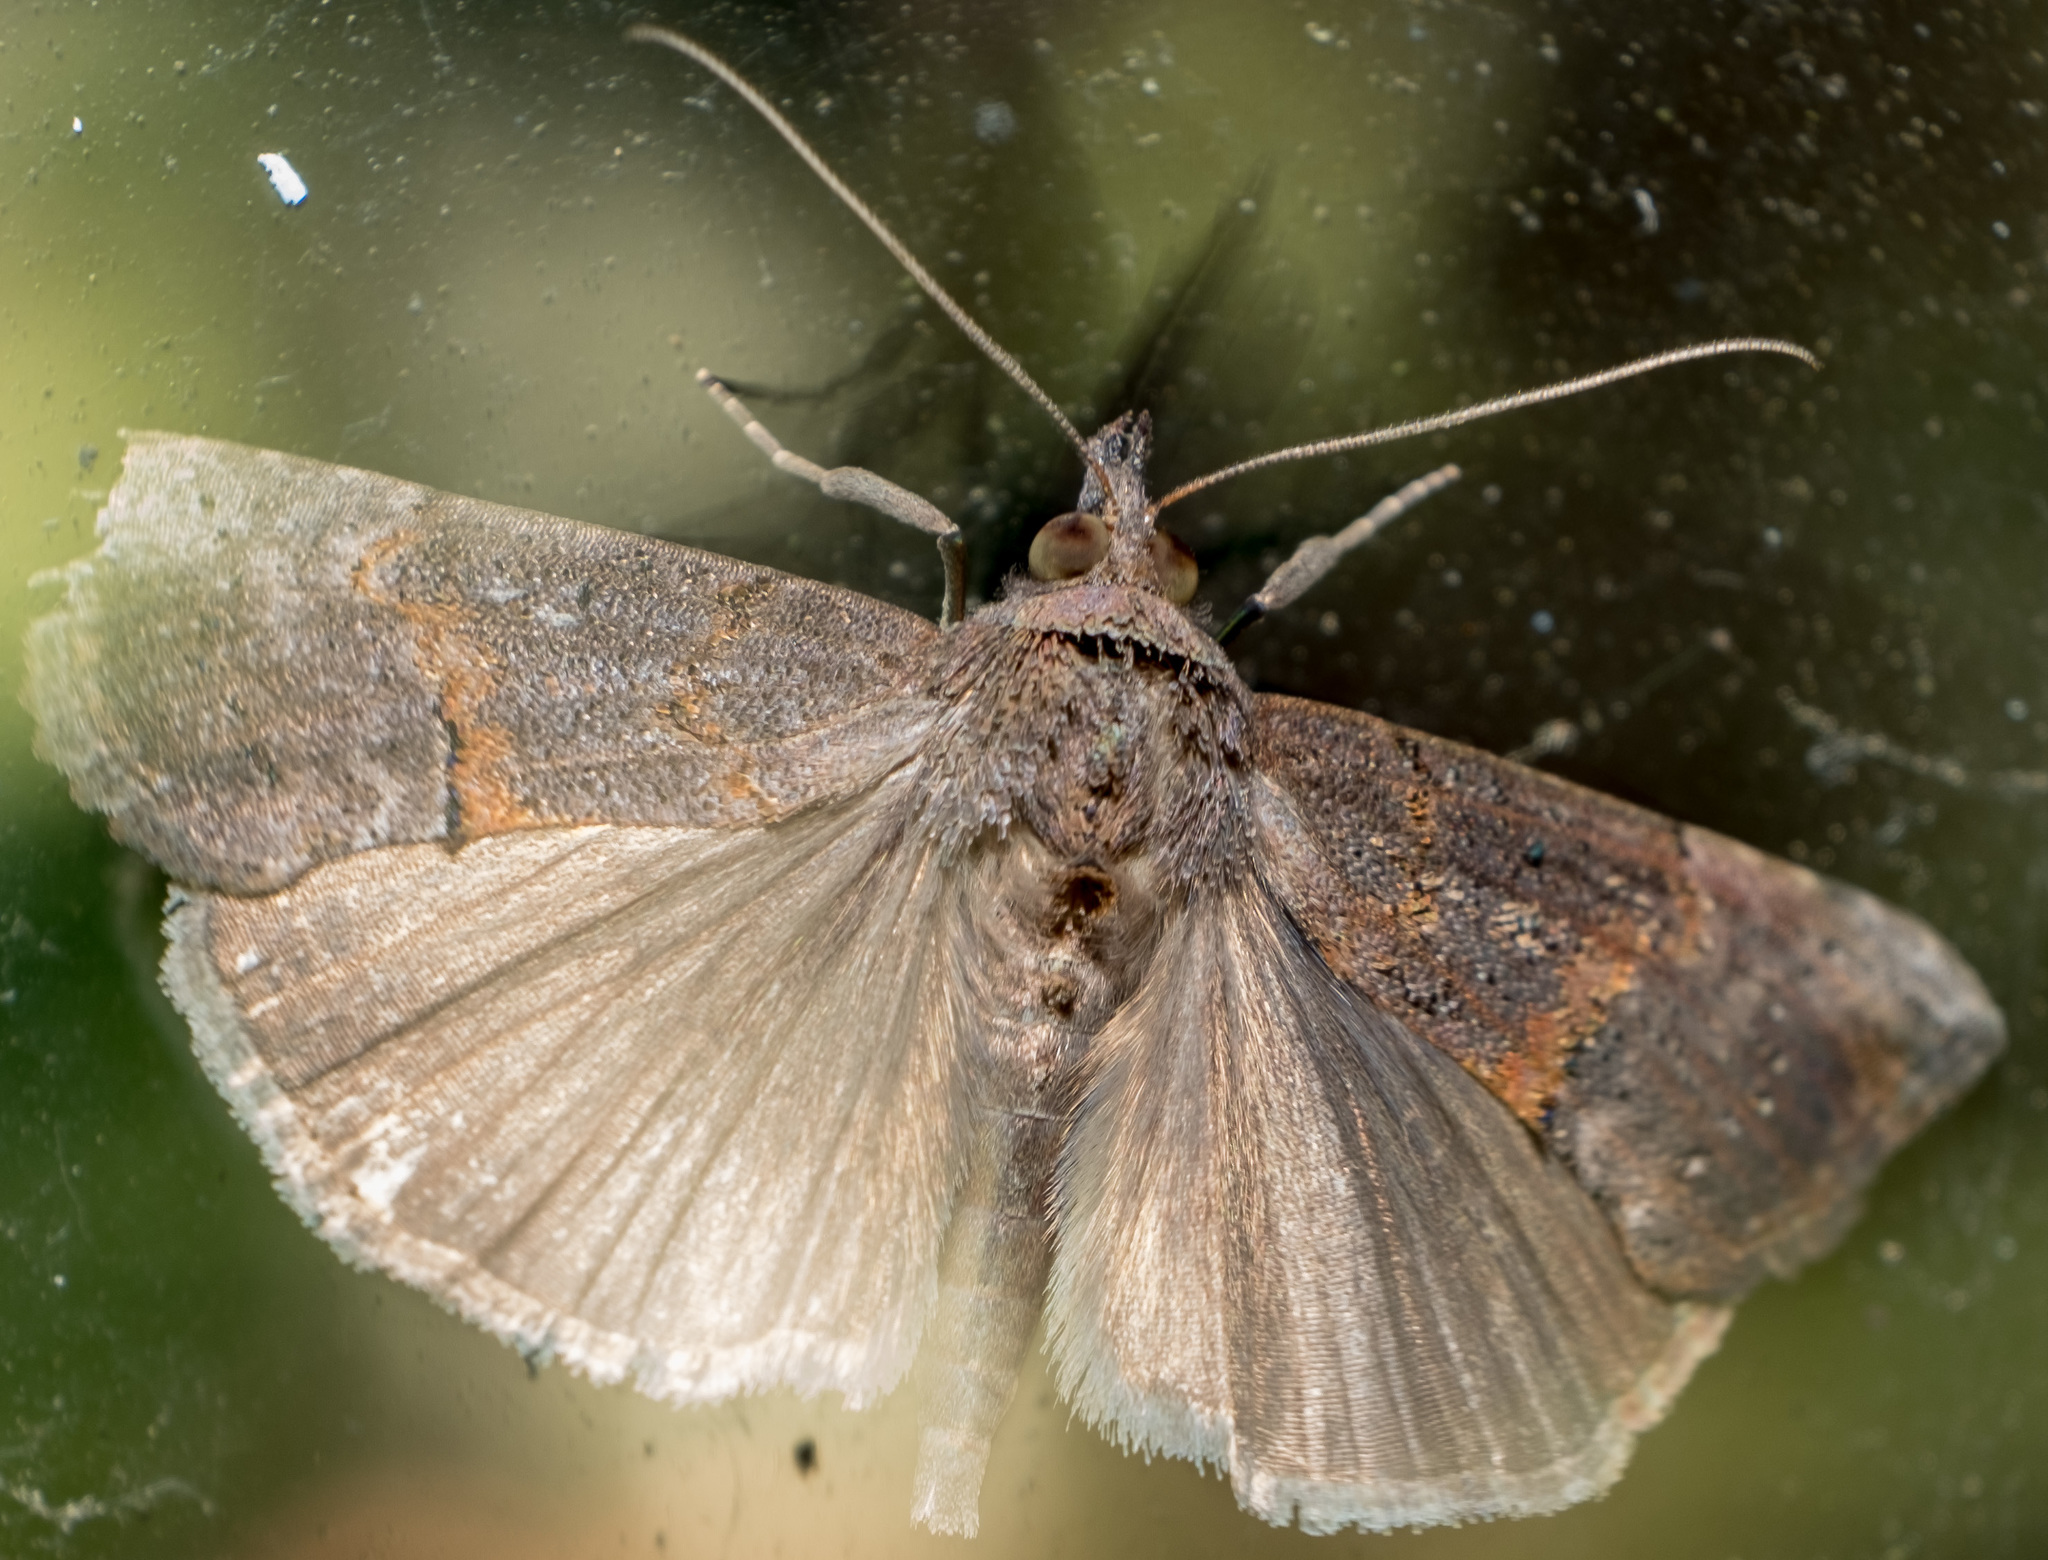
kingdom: Animalia
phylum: Arthropoda
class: Insecta
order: Lepidoptera
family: Erebidae
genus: Hypena
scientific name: Hypena scabra
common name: Green cloverworm
